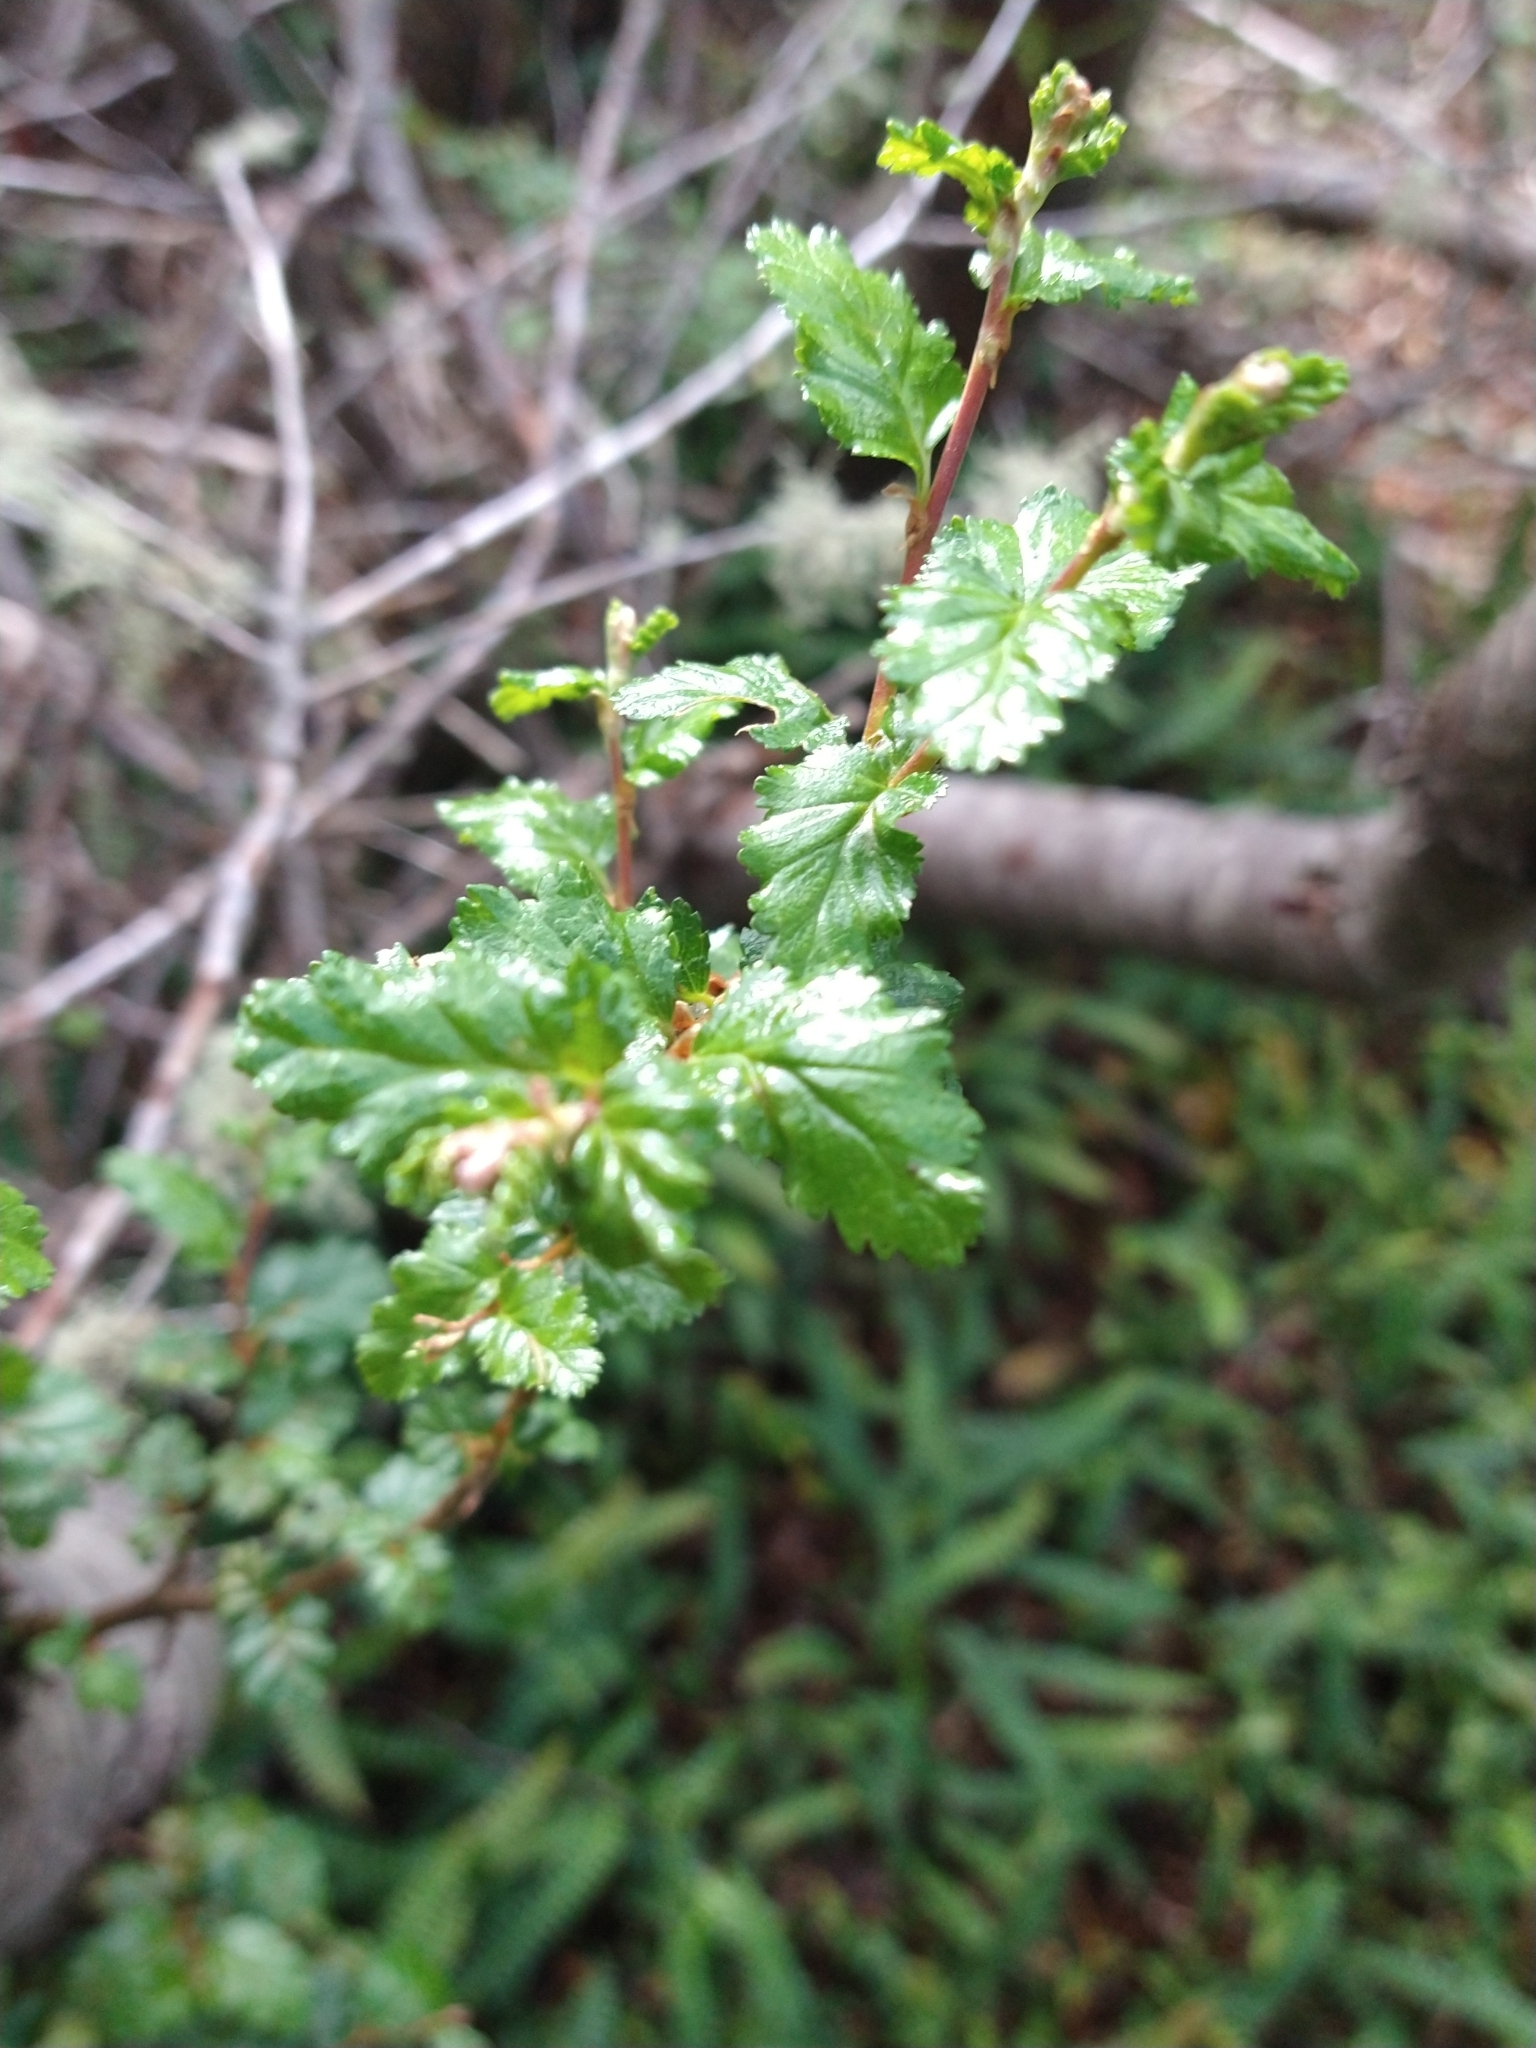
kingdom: Plantae
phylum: Tracheophyta
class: Magnoliopsida
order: Fagales
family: Nothofagaceae
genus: Nothofagus
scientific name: Nothofagus antarctica
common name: Antarctic beech
